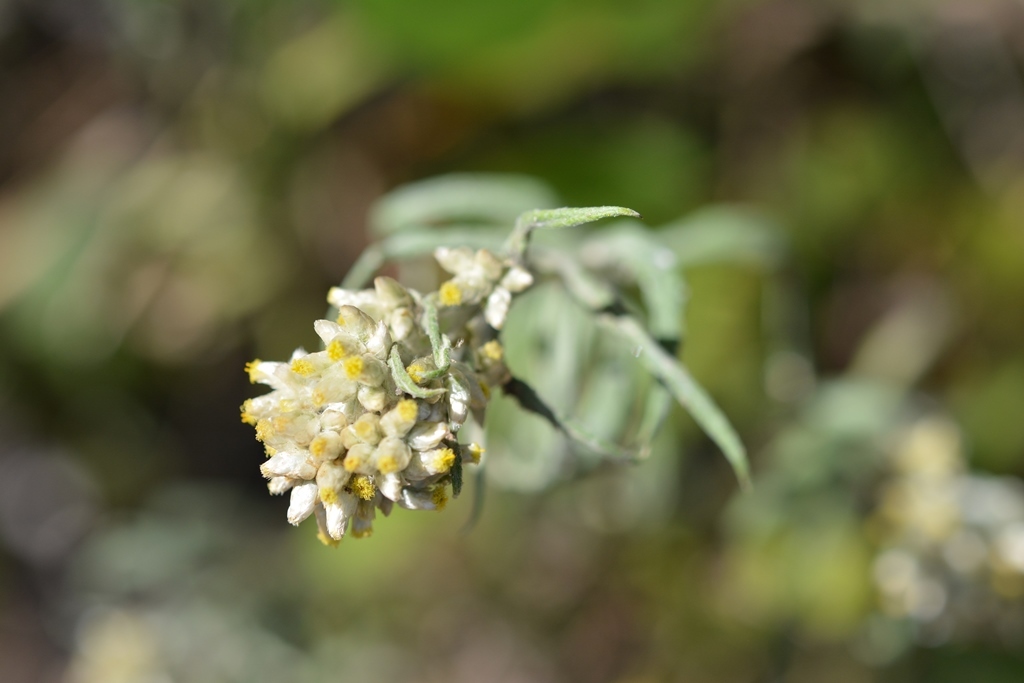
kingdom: Plantae
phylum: Tracheophyta
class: Magnoliopsida
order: Asterales
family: Asteraceae
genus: Pseudognaphalium
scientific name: Pseudognaphalium inornatum
